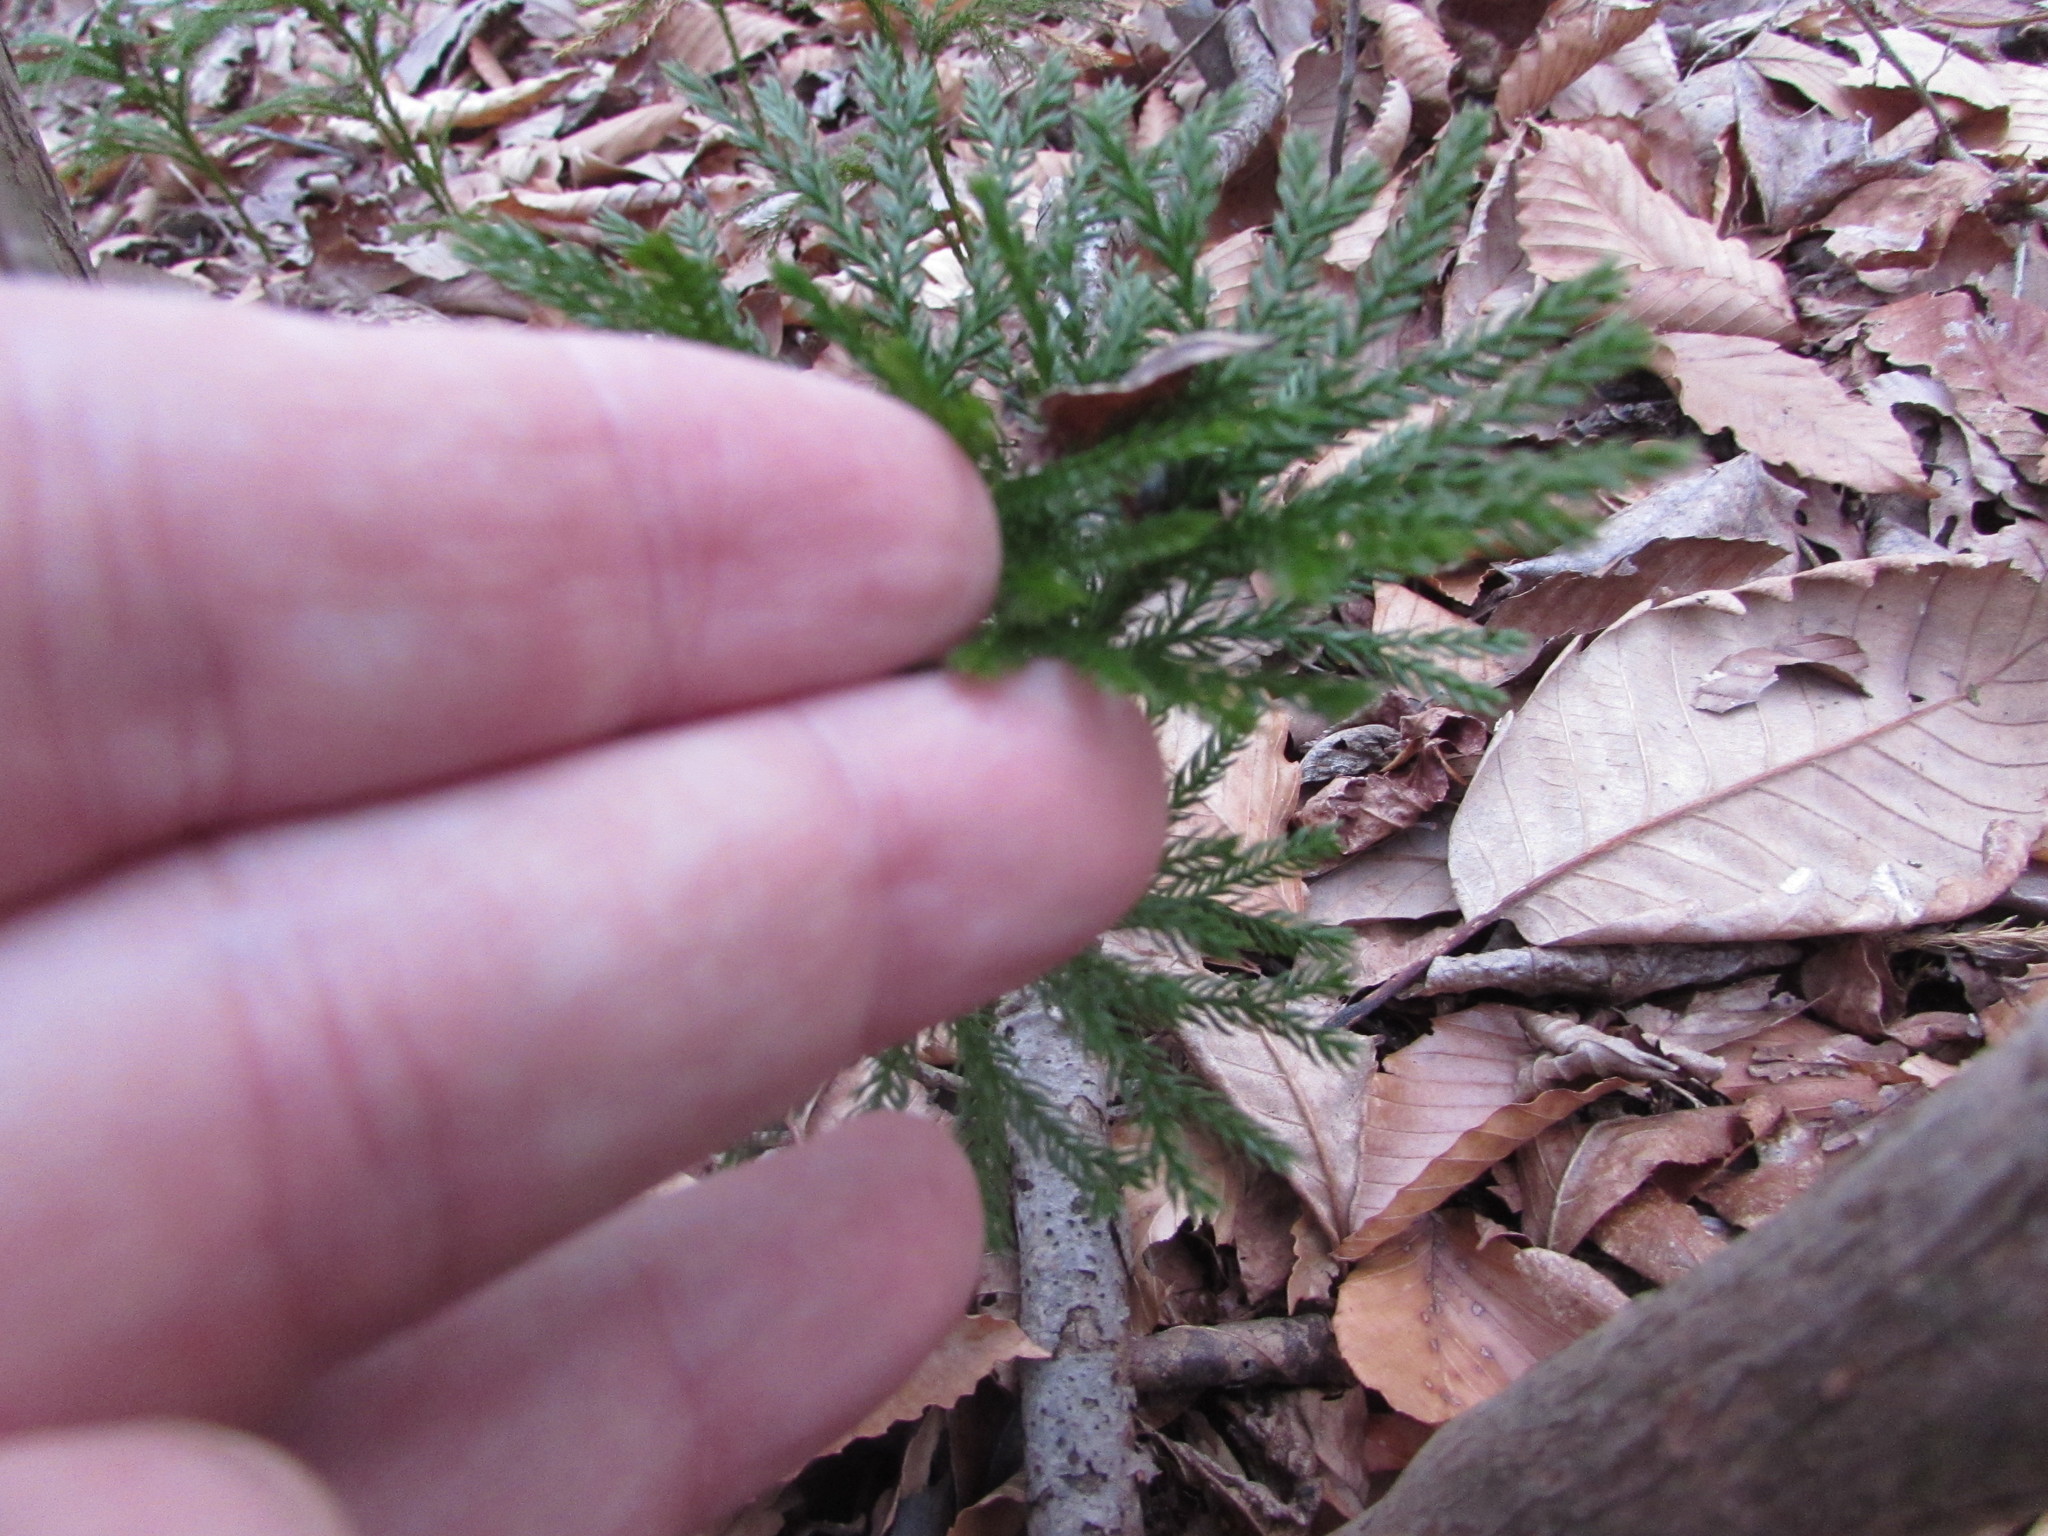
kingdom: Plantae
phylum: Tracheophyta
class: Lycopodiopsida
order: Lycopodiales
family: Lycopodiaceae
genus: Dendrolycopodium
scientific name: Dendrolycopodium obscurum
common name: Common ground-pine
